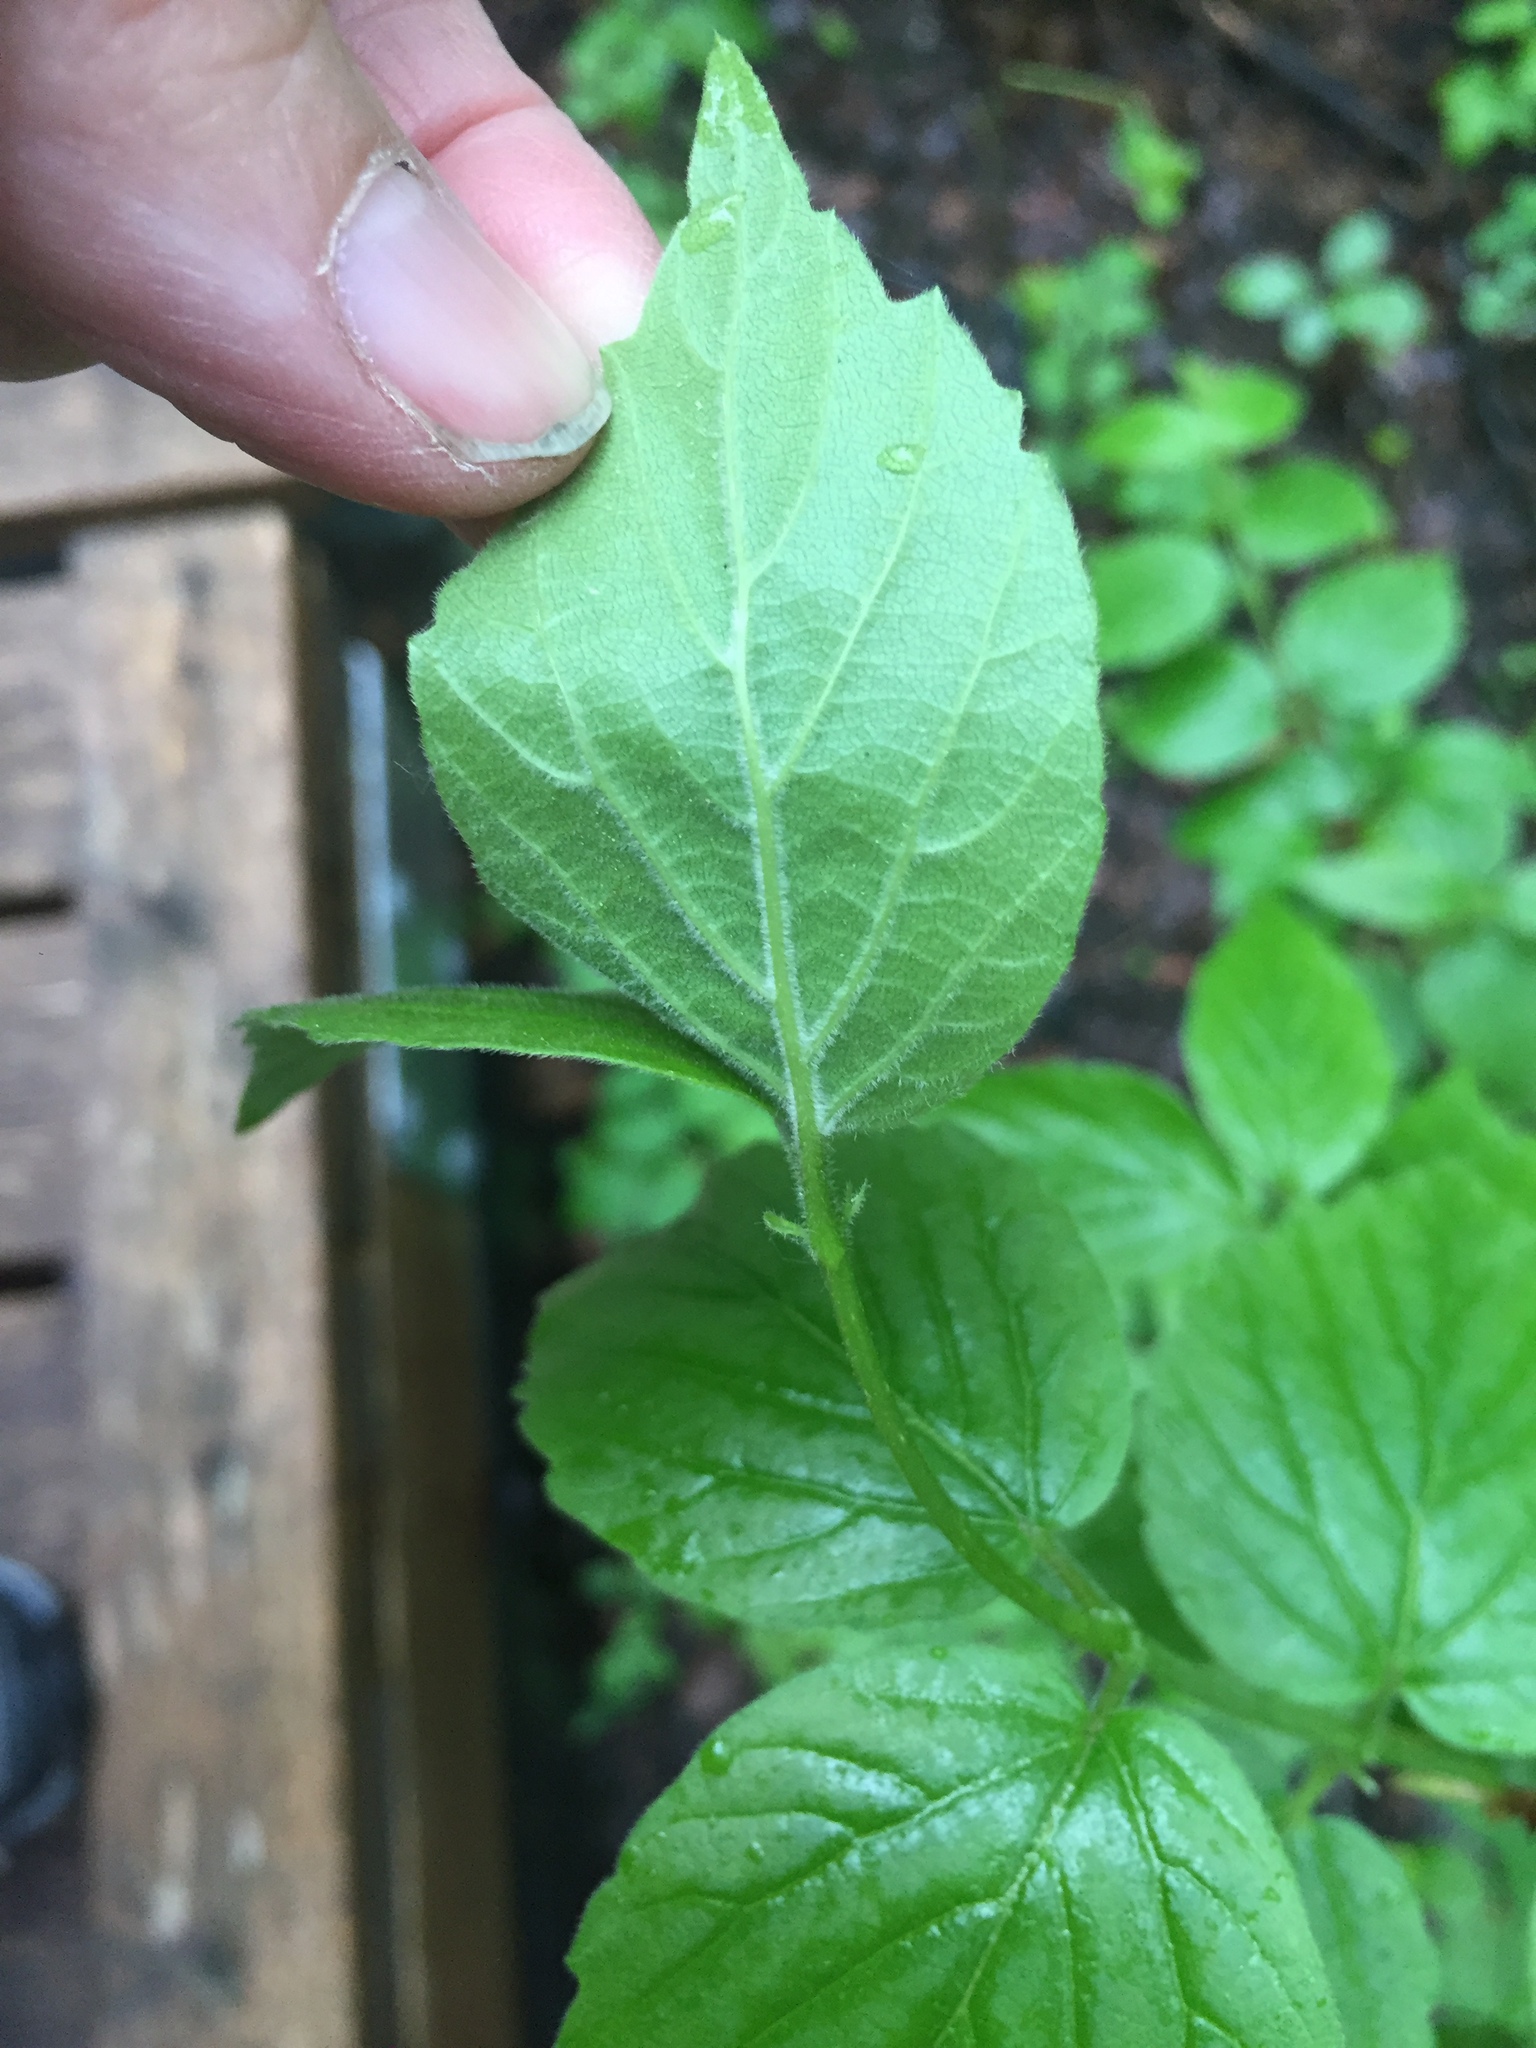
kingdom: Plantae
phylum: Tracheophyta
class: Magnoliopsida
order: Dipsacales
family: Viburnaceae
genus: Viburnum
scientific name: Viburnum rafinesqueanum
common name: Downy arrow-wood
